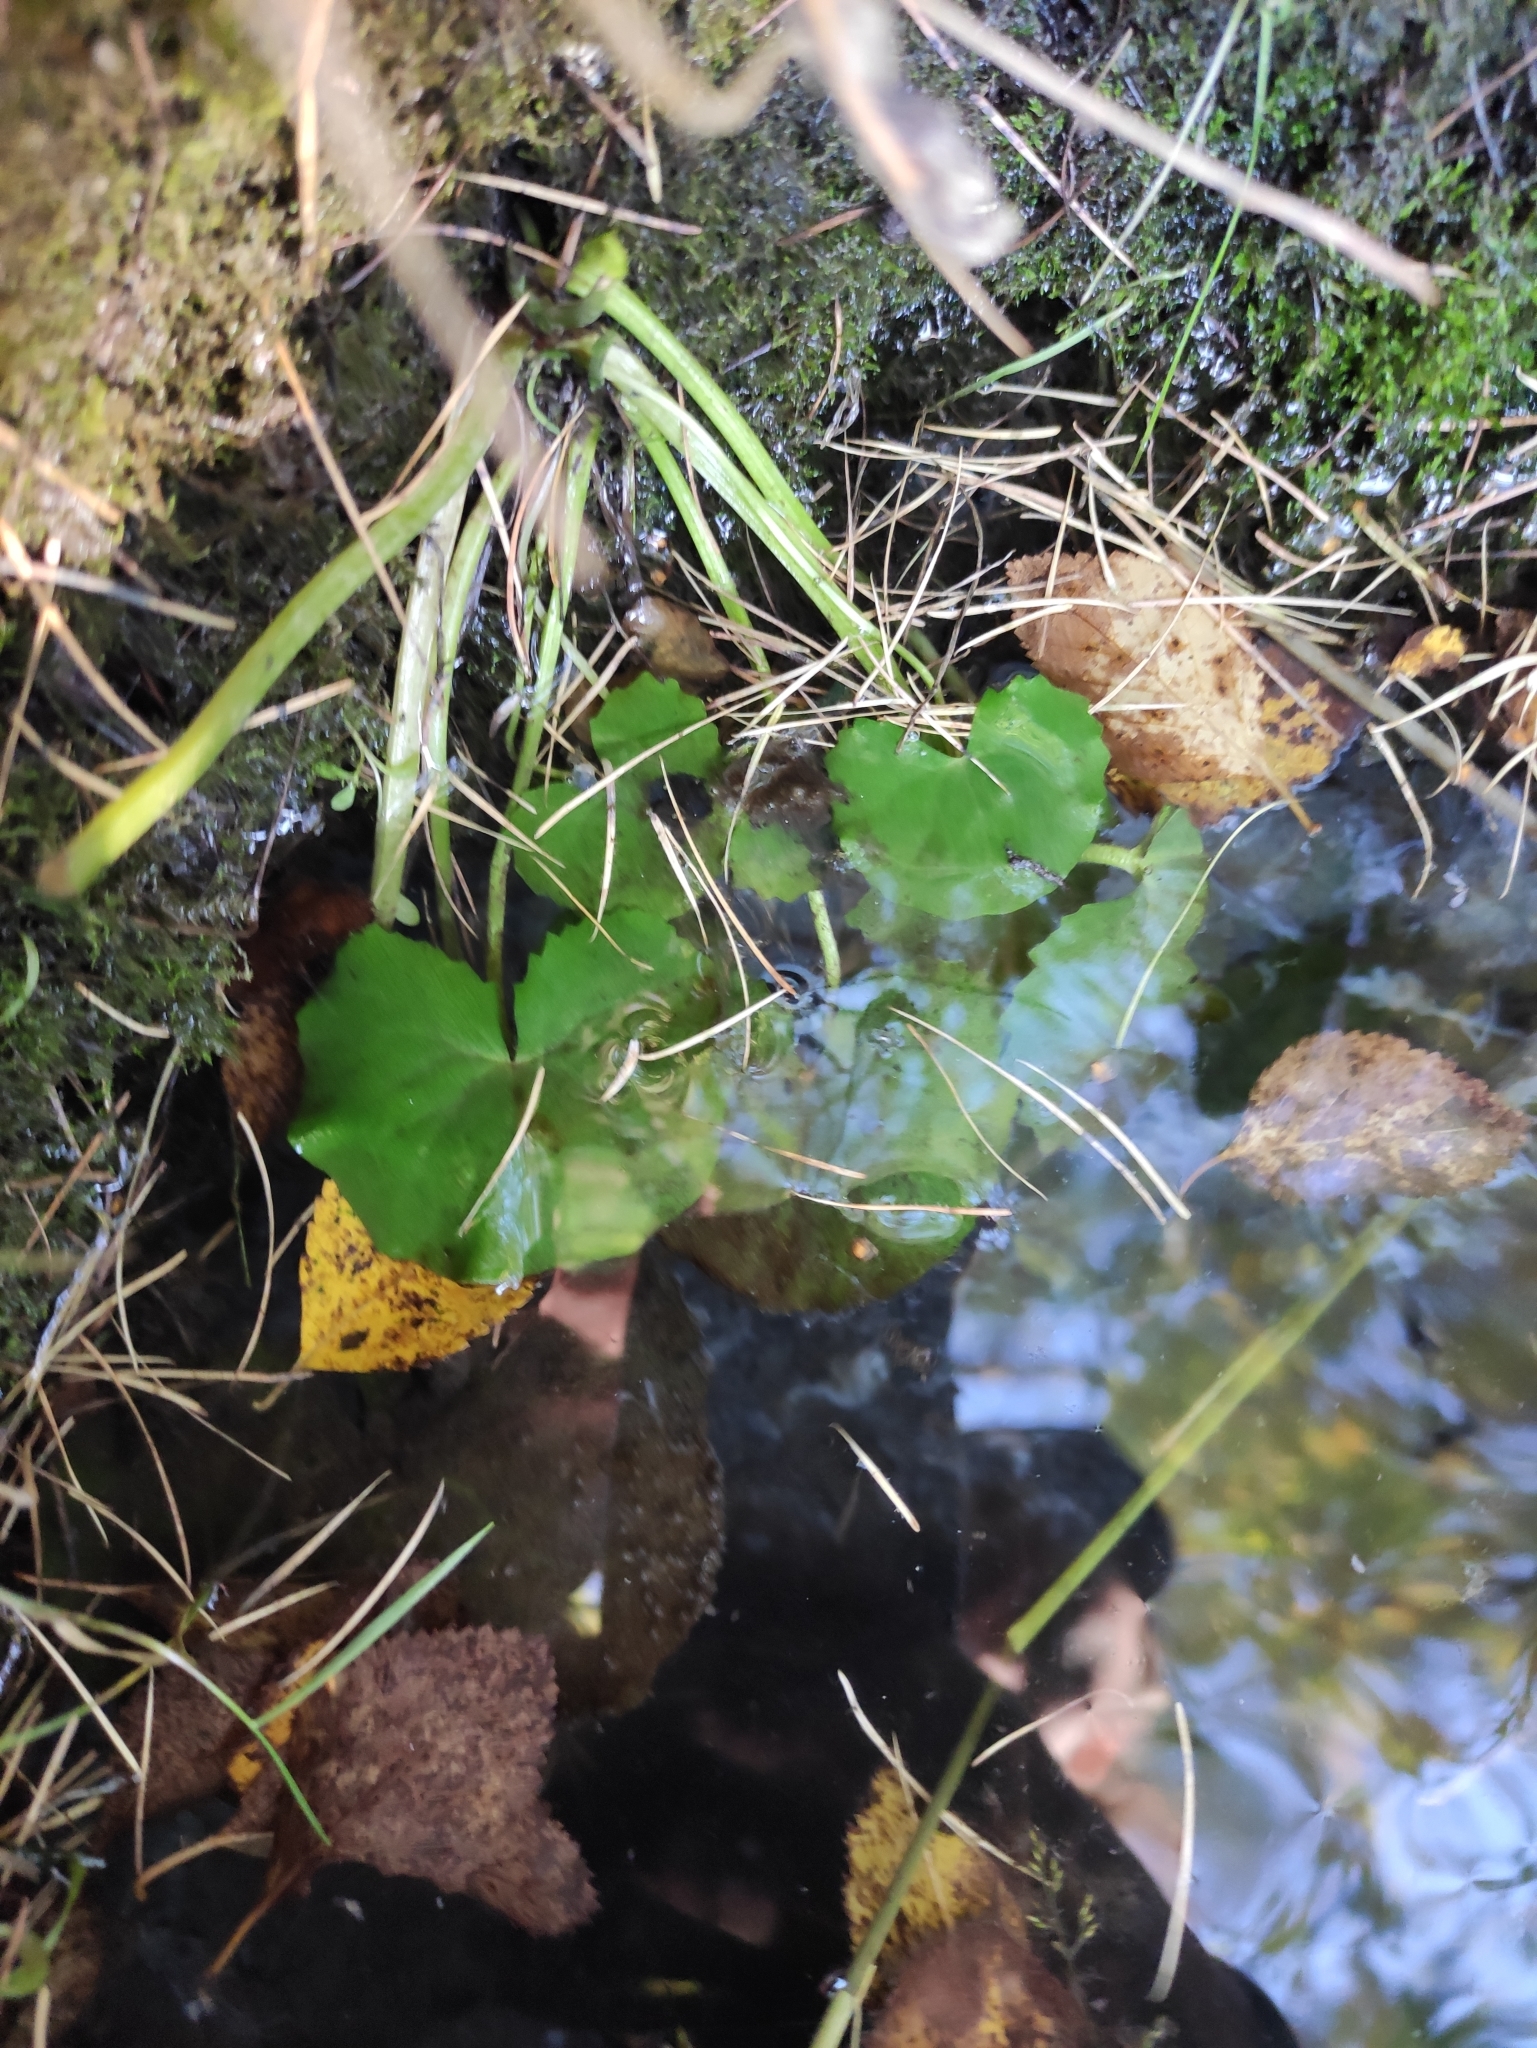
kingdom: Plantae
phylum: Tracheophyta
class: Magnoliopsida
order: Ranunculales
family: Ranunculaceae
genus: Caltha
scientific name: Caltha palustris
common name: Marsh marigold
